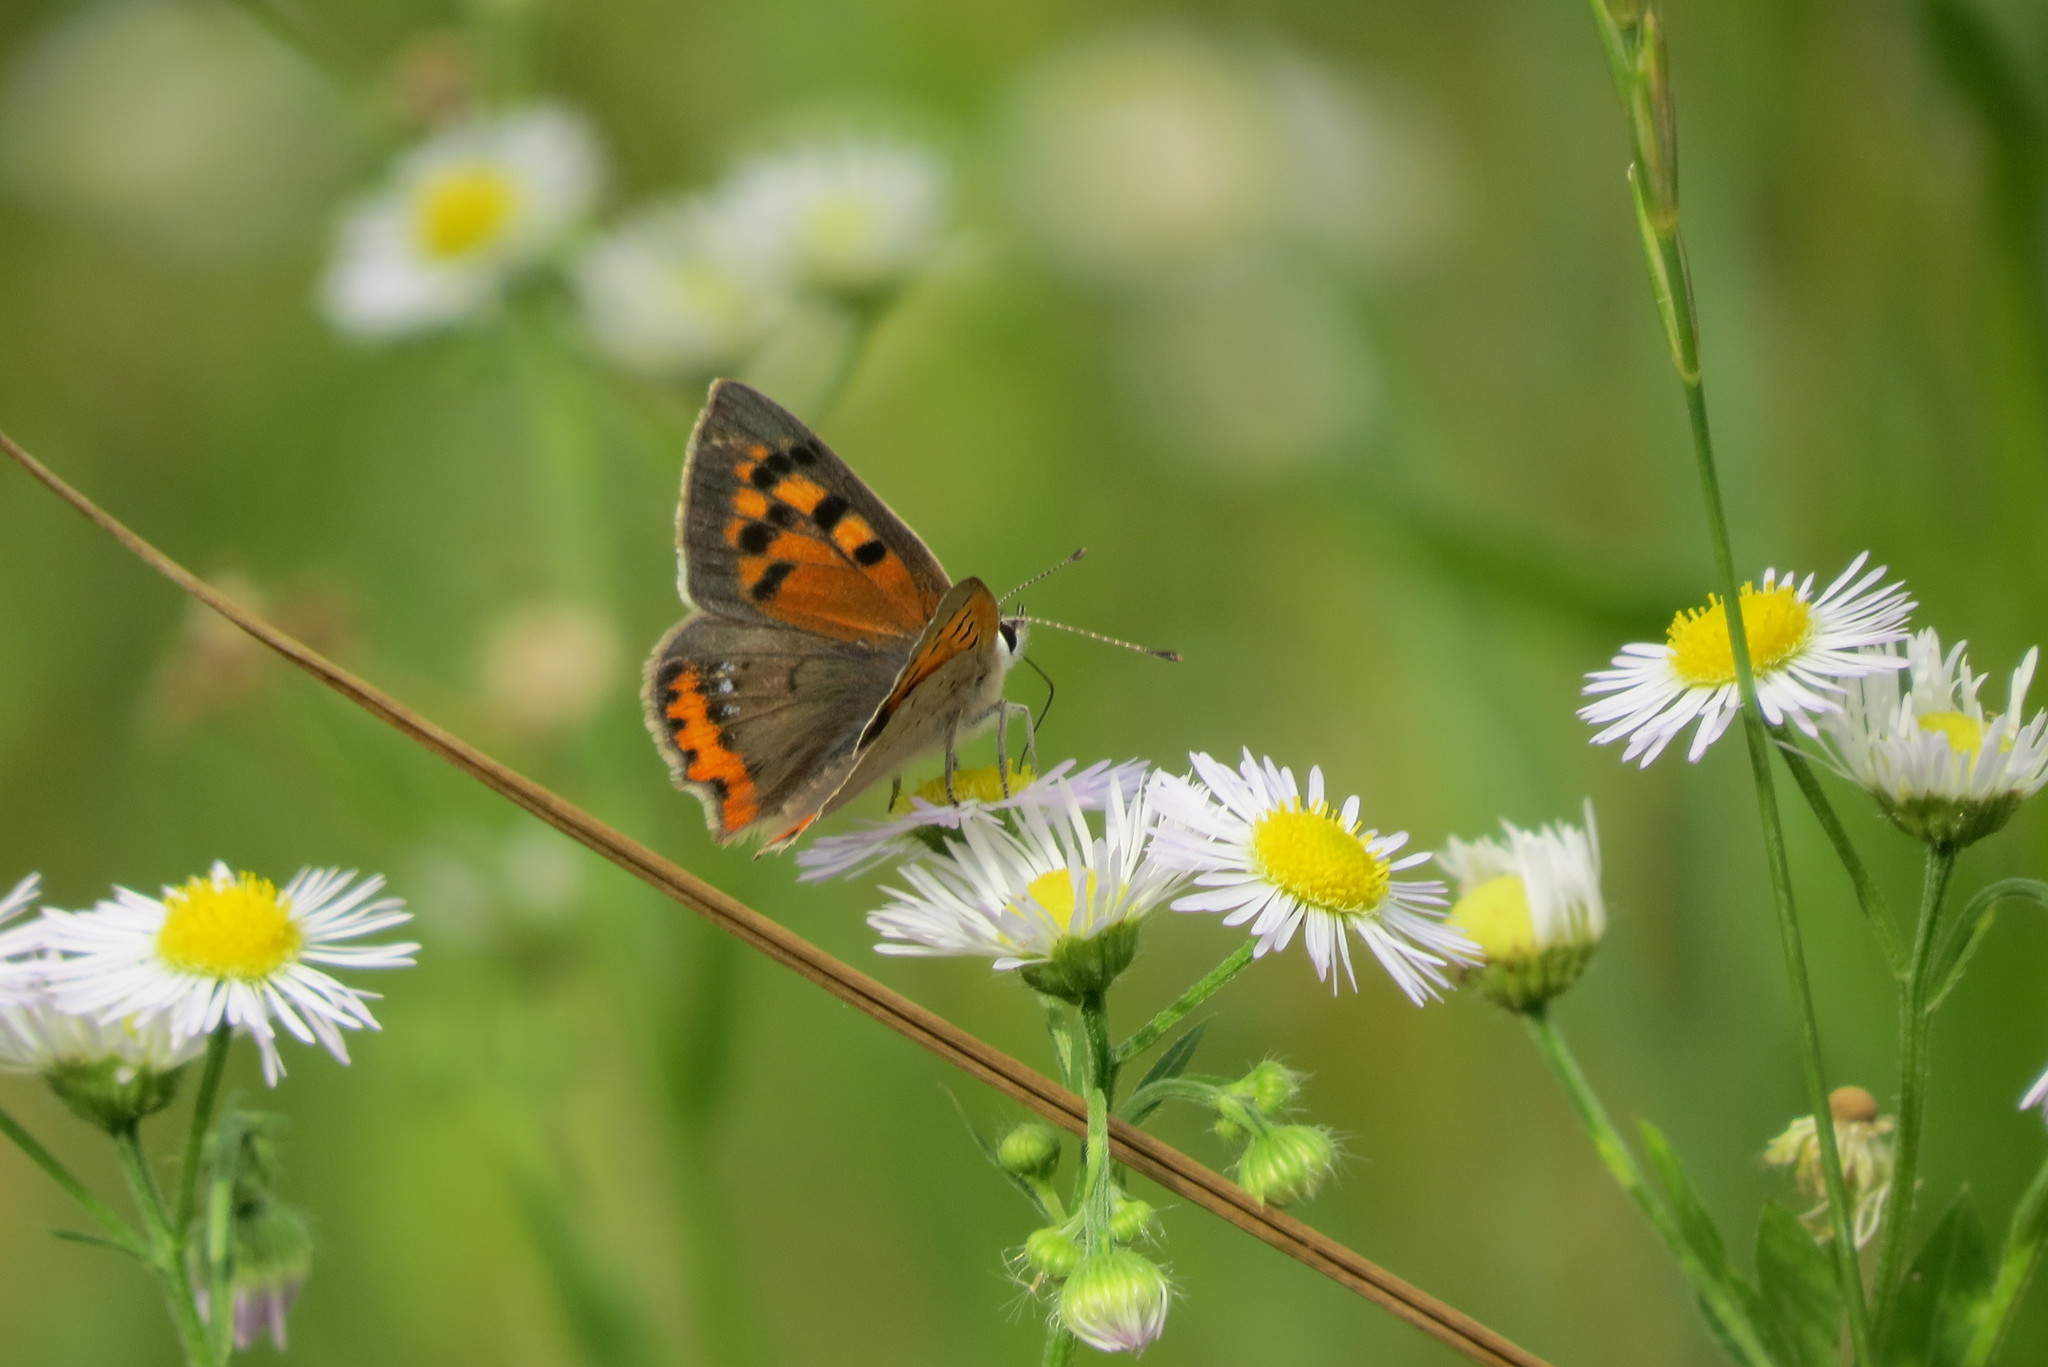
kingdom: Animalia
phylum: Arthropoda
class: Insecta
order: Lepidoptera
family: Lycaenidae
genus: Lycaena
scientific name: Lycaena phlaeas
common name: Small copper
